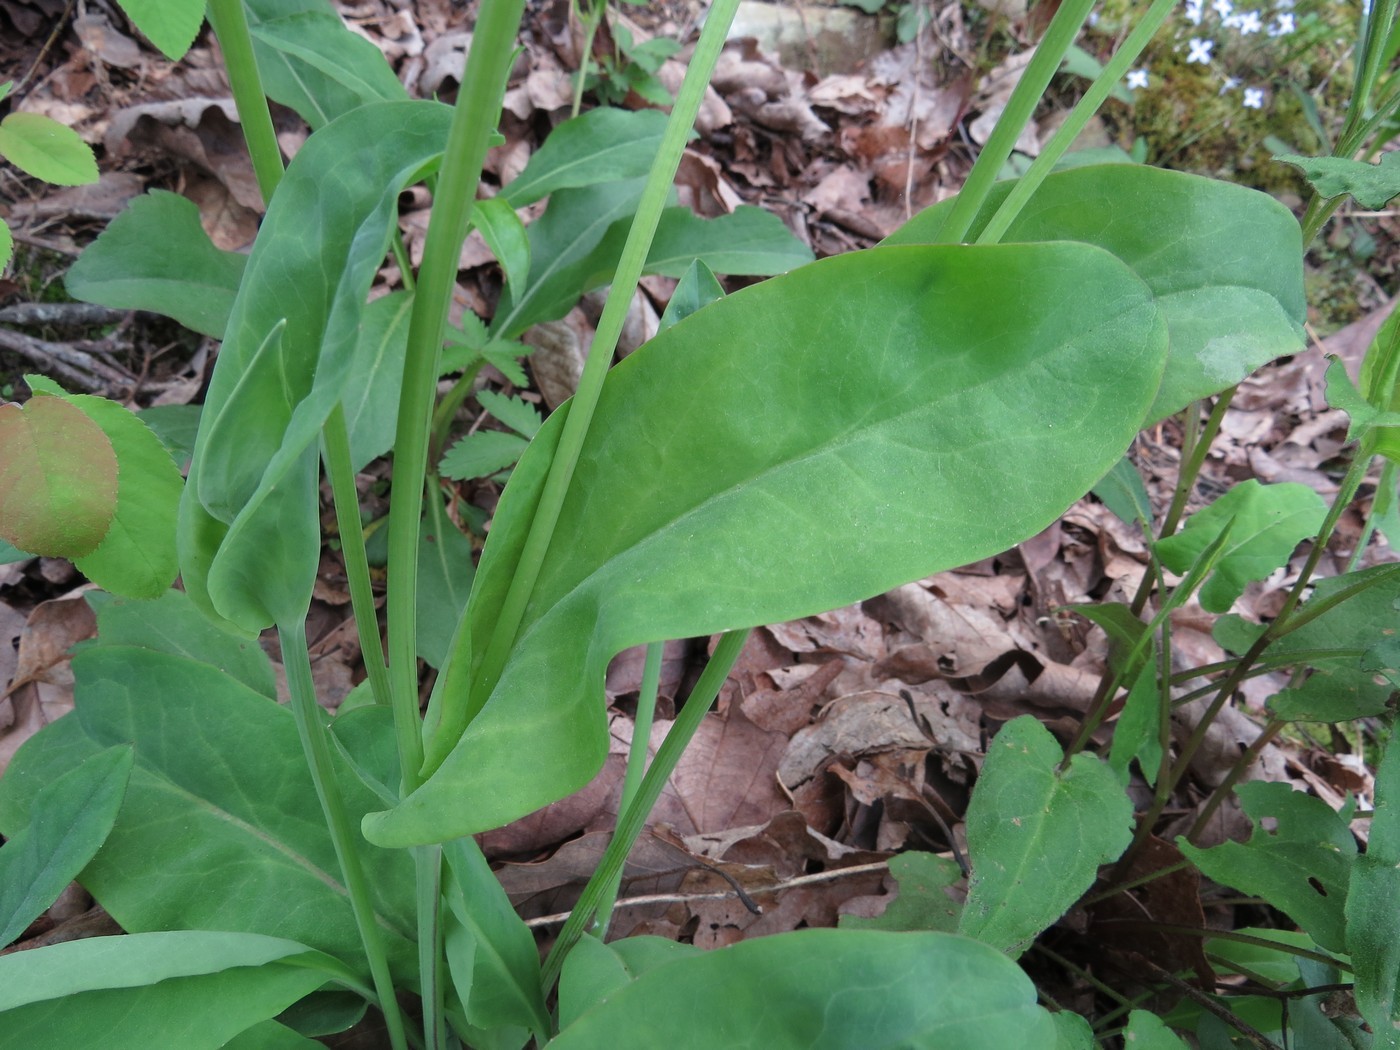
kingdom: Plantae
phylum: Tracheophyta
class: Magnoliopsida
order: Asterales
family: Asteraceae
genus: Krigia
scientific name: Krigia biflora
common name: Orange dwarf-dandelion
